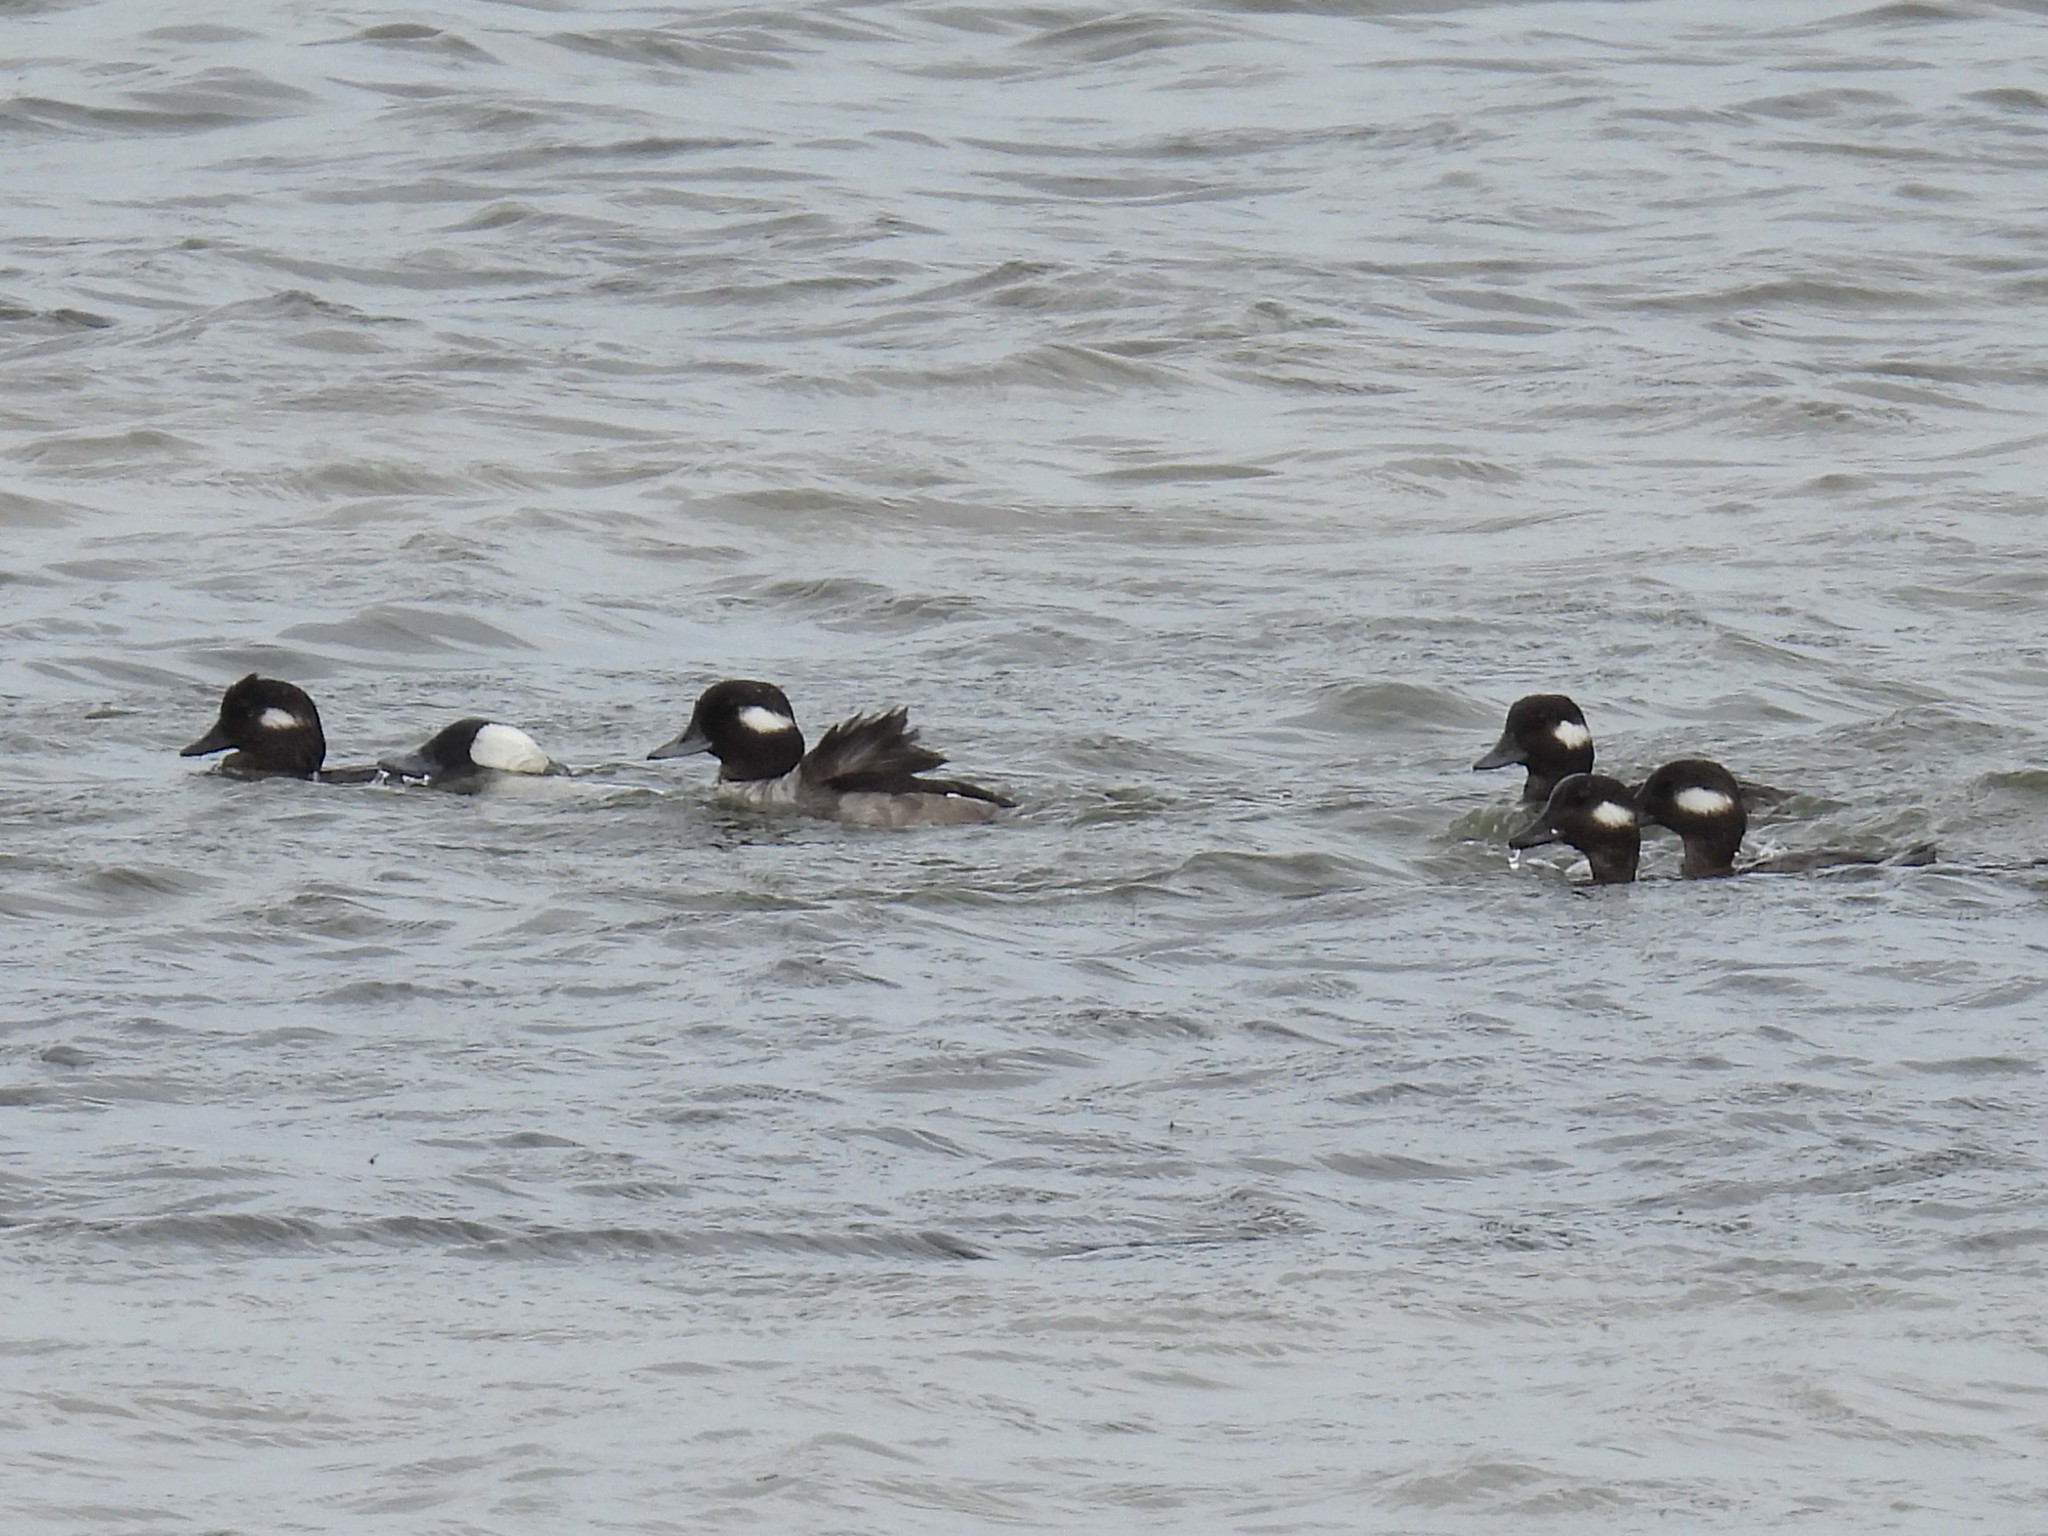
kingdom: Animalia
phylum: Chordata
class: Aves
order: Anseriformes
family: Anatidae
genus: Bucephala
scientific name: Bucephala albeola
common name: Bufflehead
